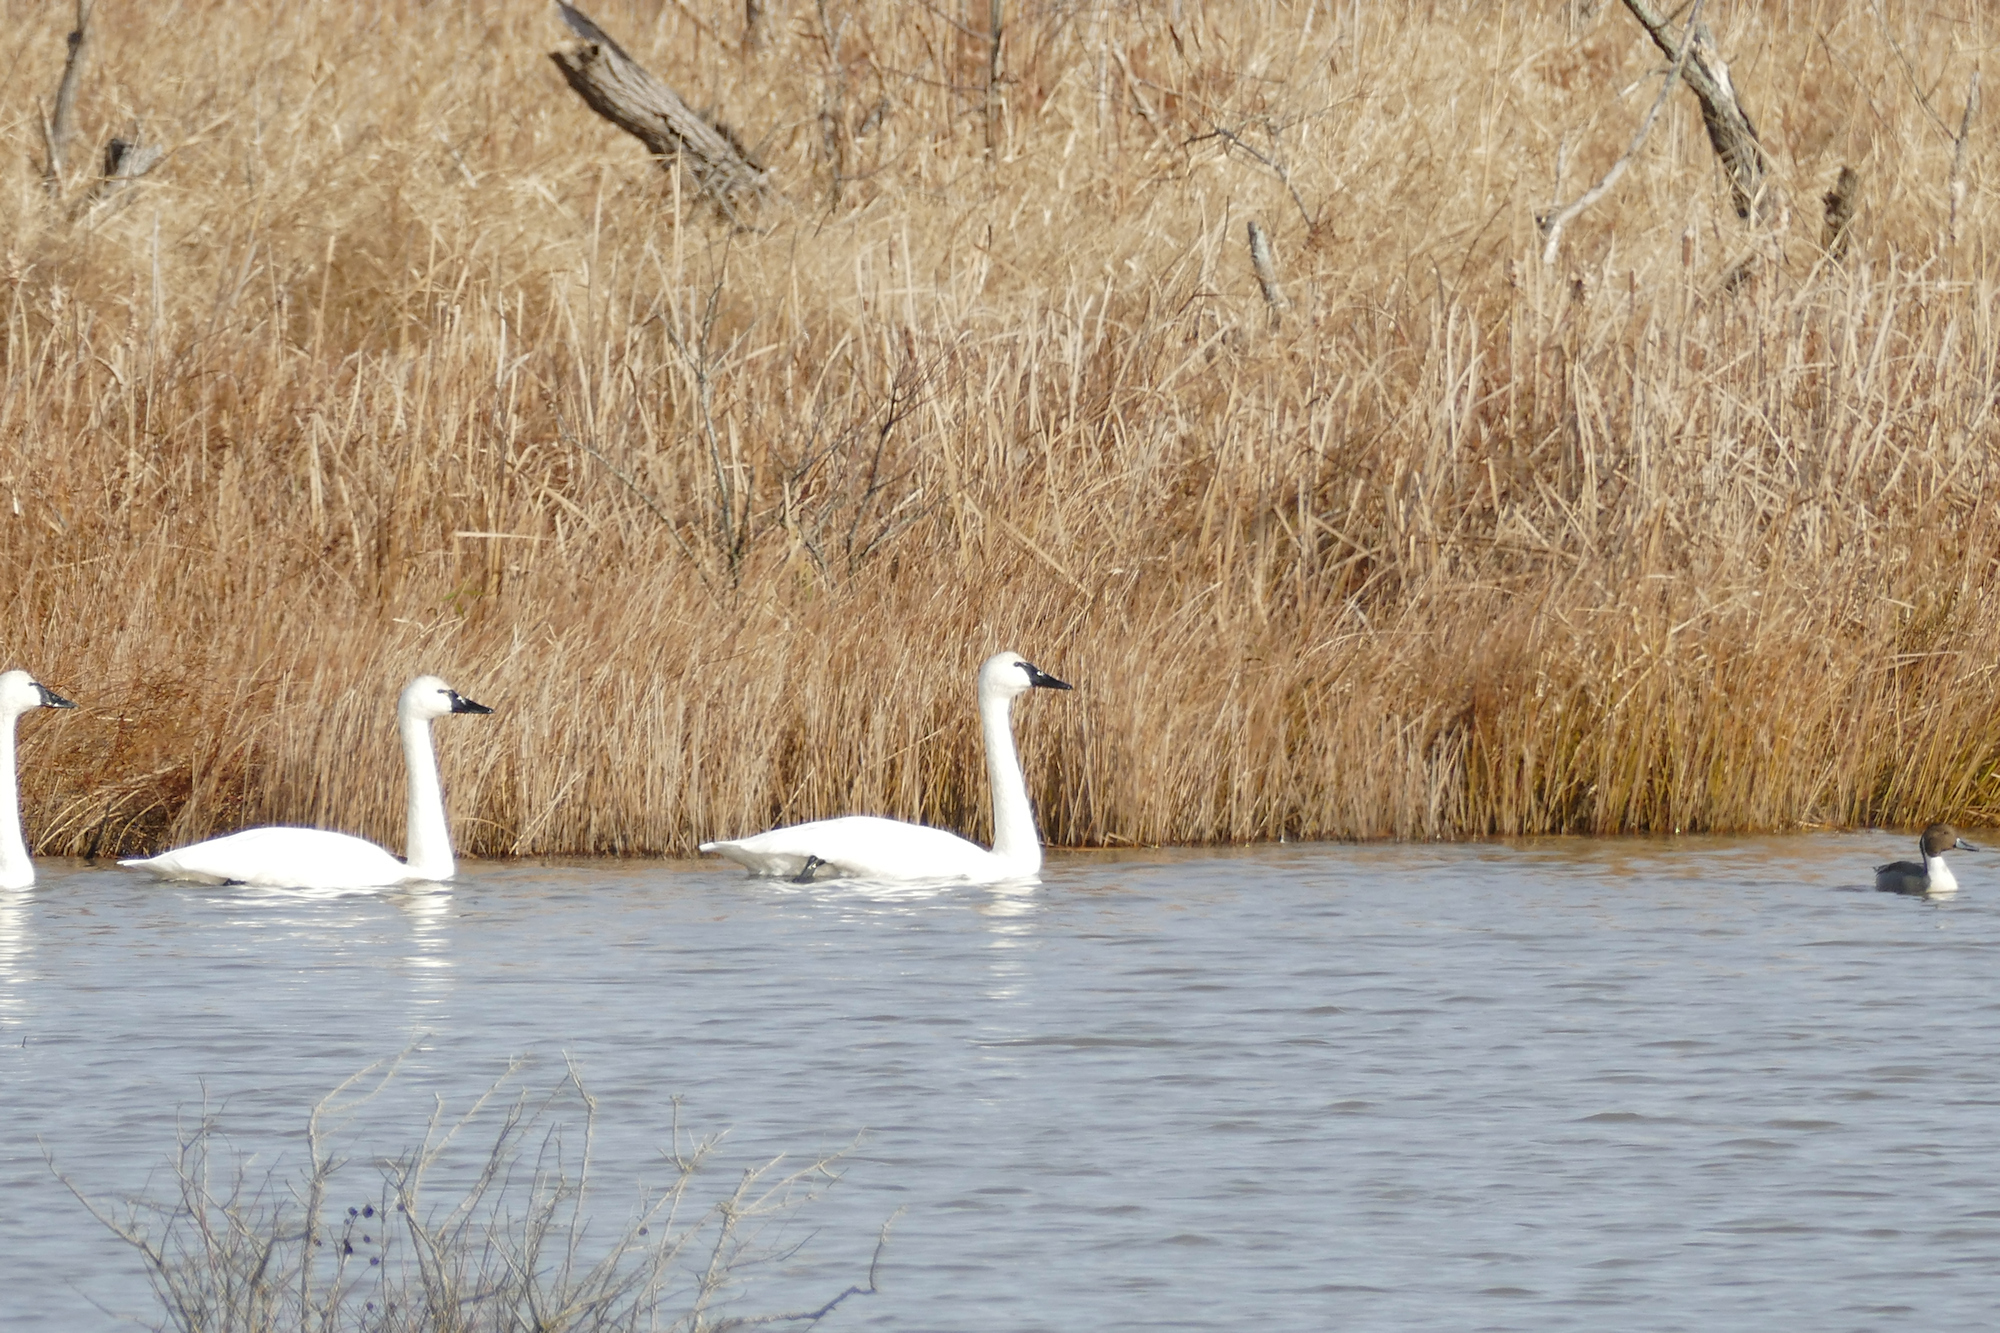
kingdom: Animalia
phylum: Chordata
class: Aves
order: Anseriformes
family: Anatidae
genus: Anas
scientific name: Anas acuta
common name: Northern pintail
